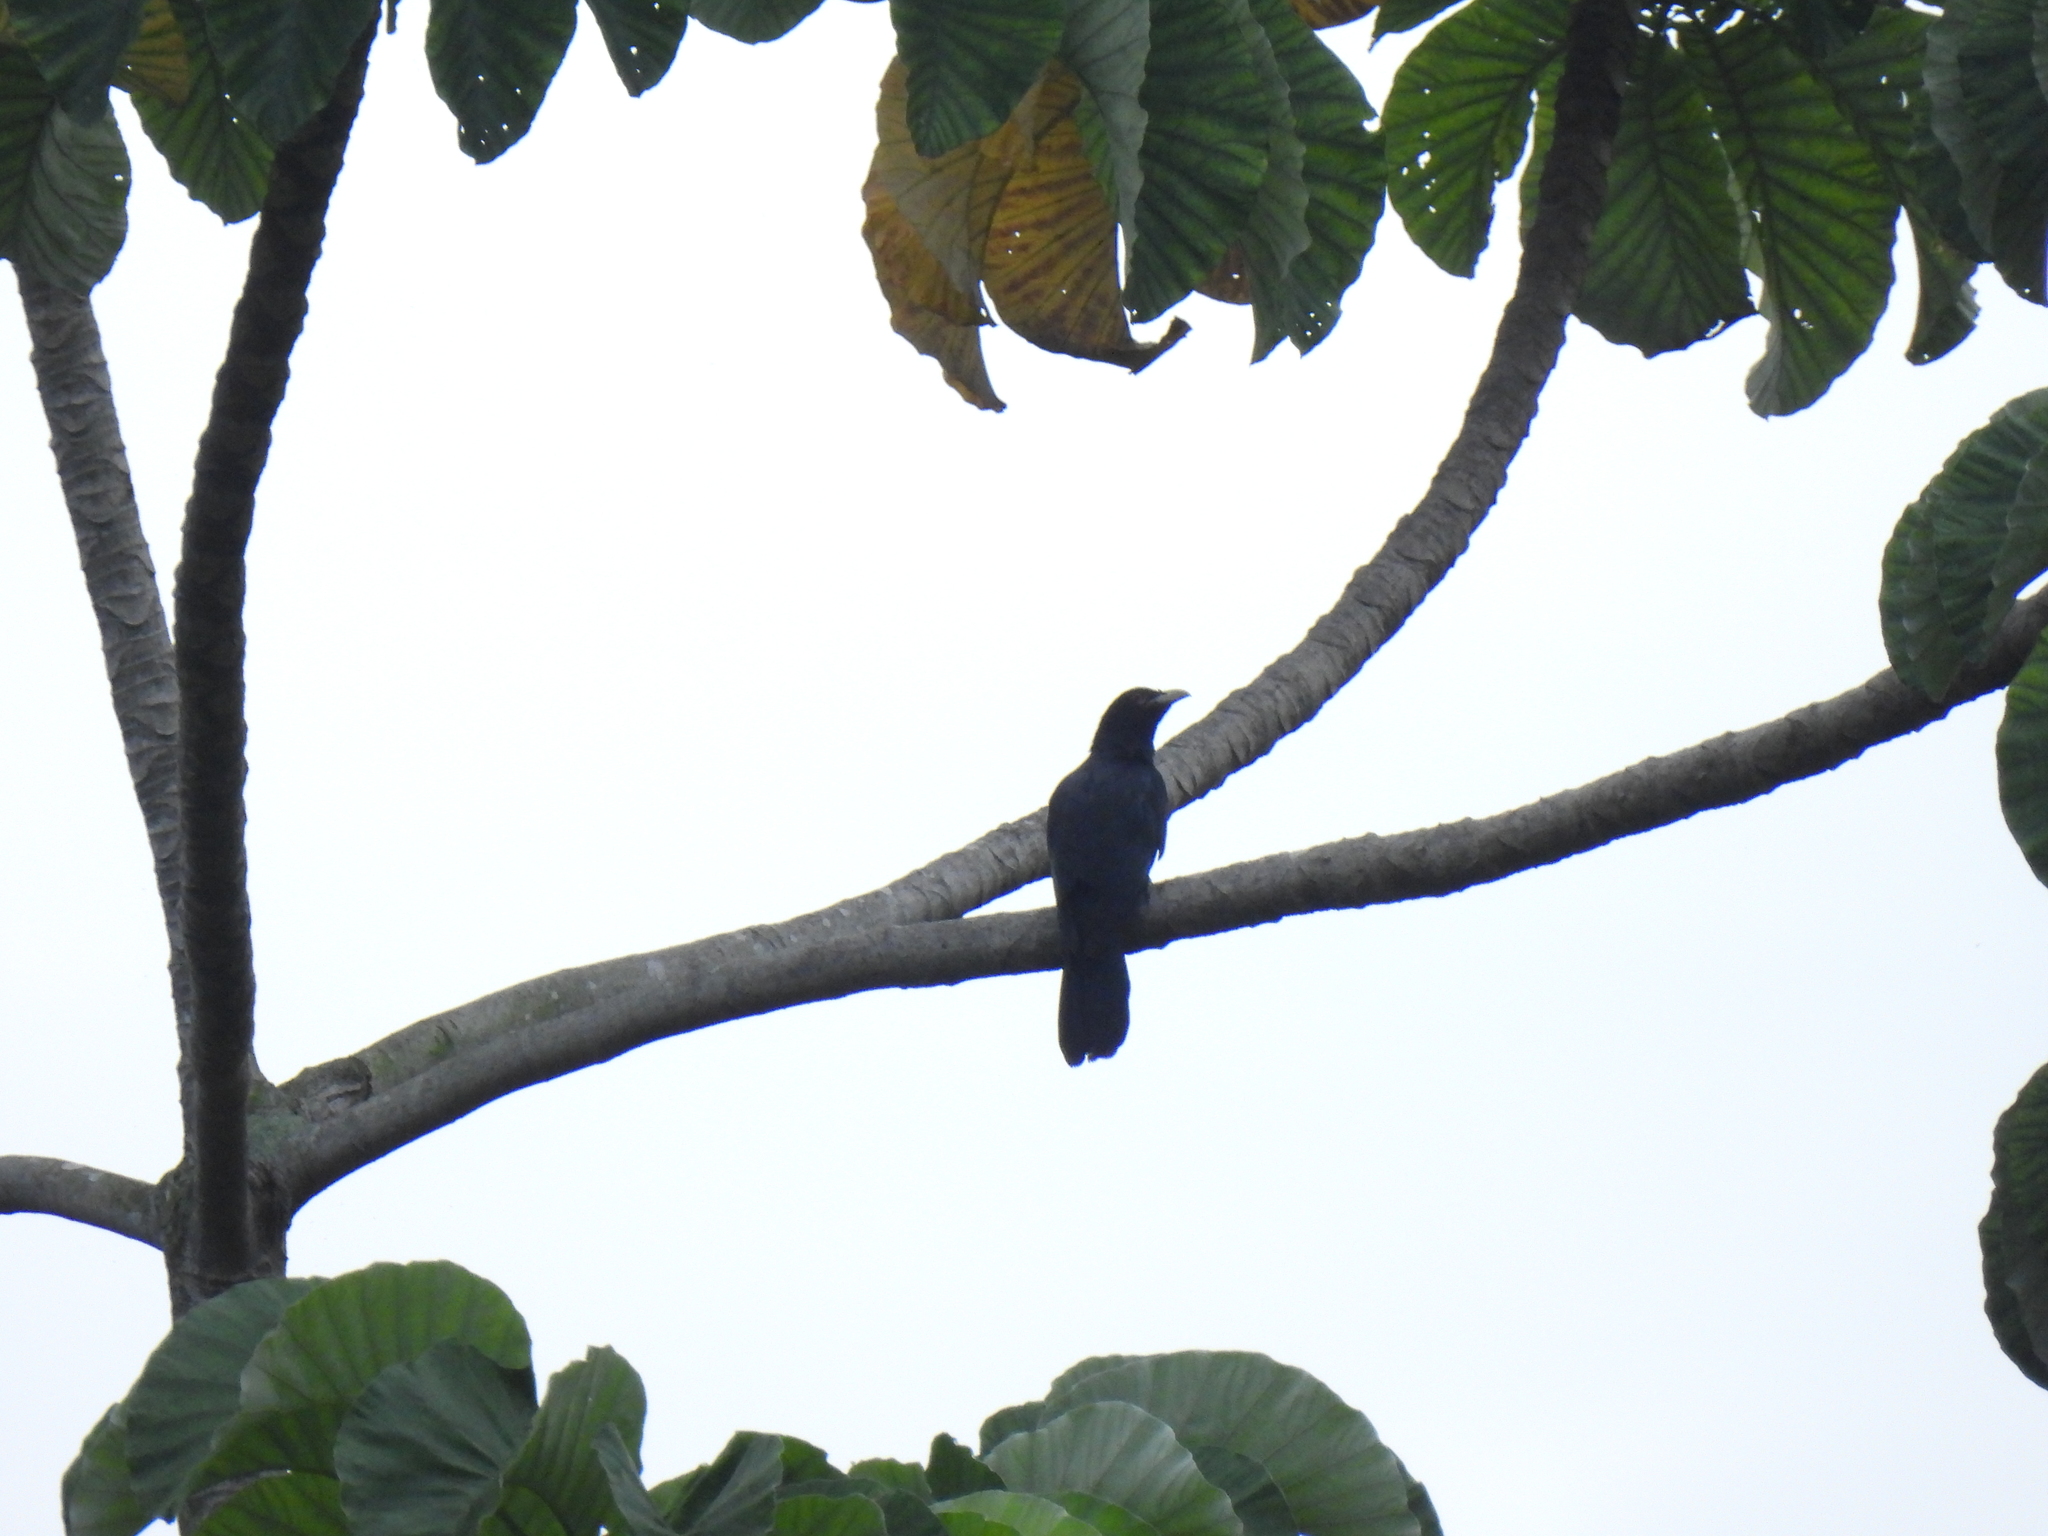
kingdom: Animalia
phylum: Chordata
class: Aves
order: Cuculiformes
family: Cuculidae
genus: Eudynamys
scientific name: Eudynamys scolopaceus
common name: Asian koel
